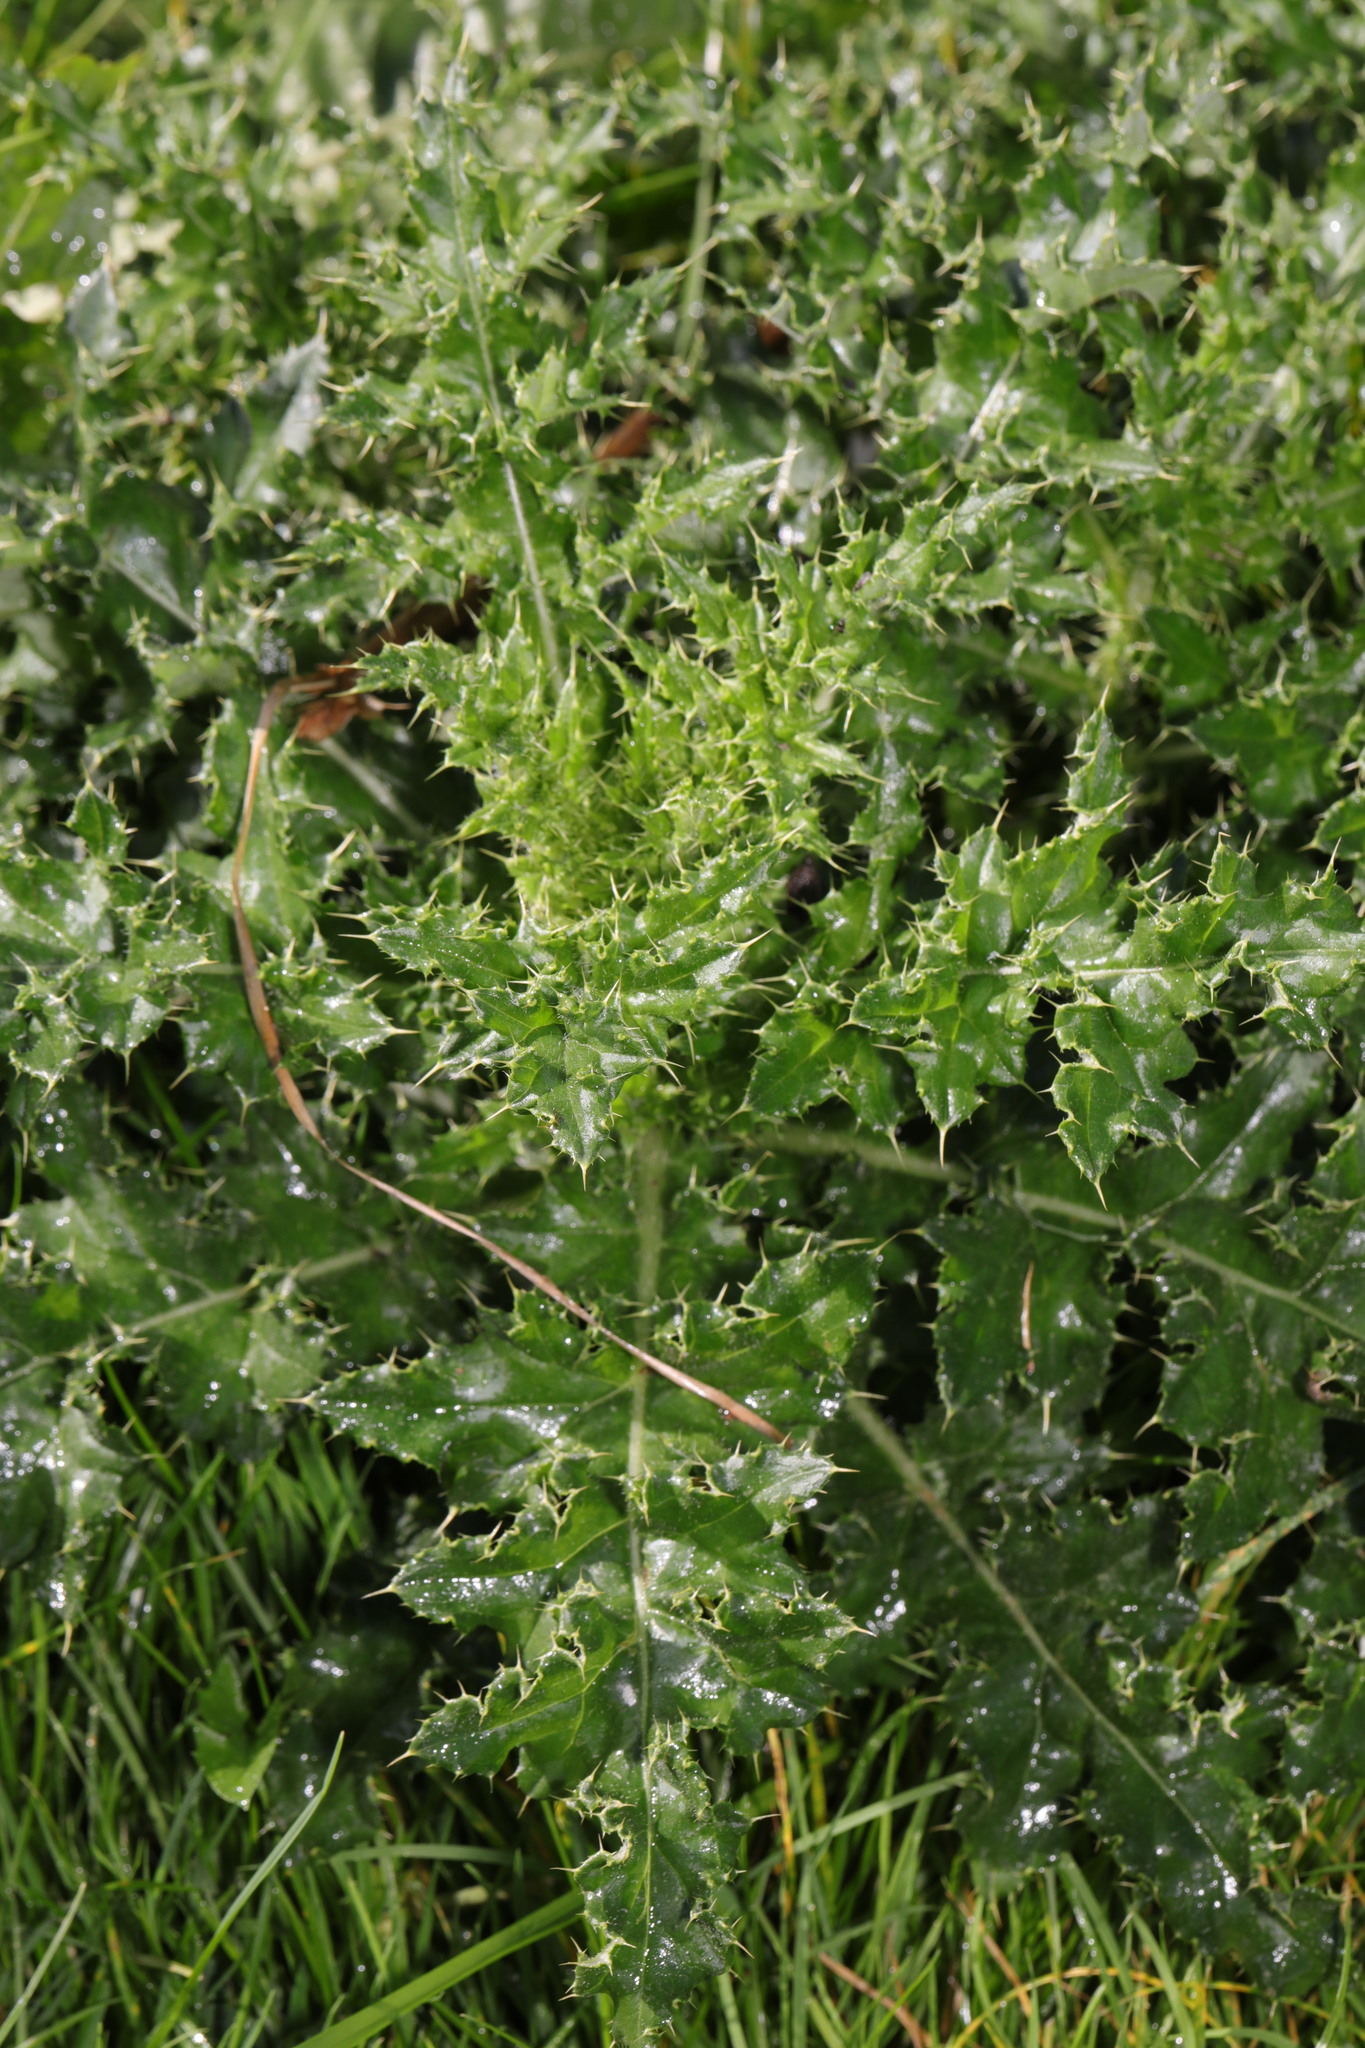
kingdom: Plantae
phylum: Tracheophyta
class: Magnoliopsida
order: Asterales
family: Asteraceae
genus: Cirsium
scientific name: Cirsium arvense
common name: Creeping thistle
